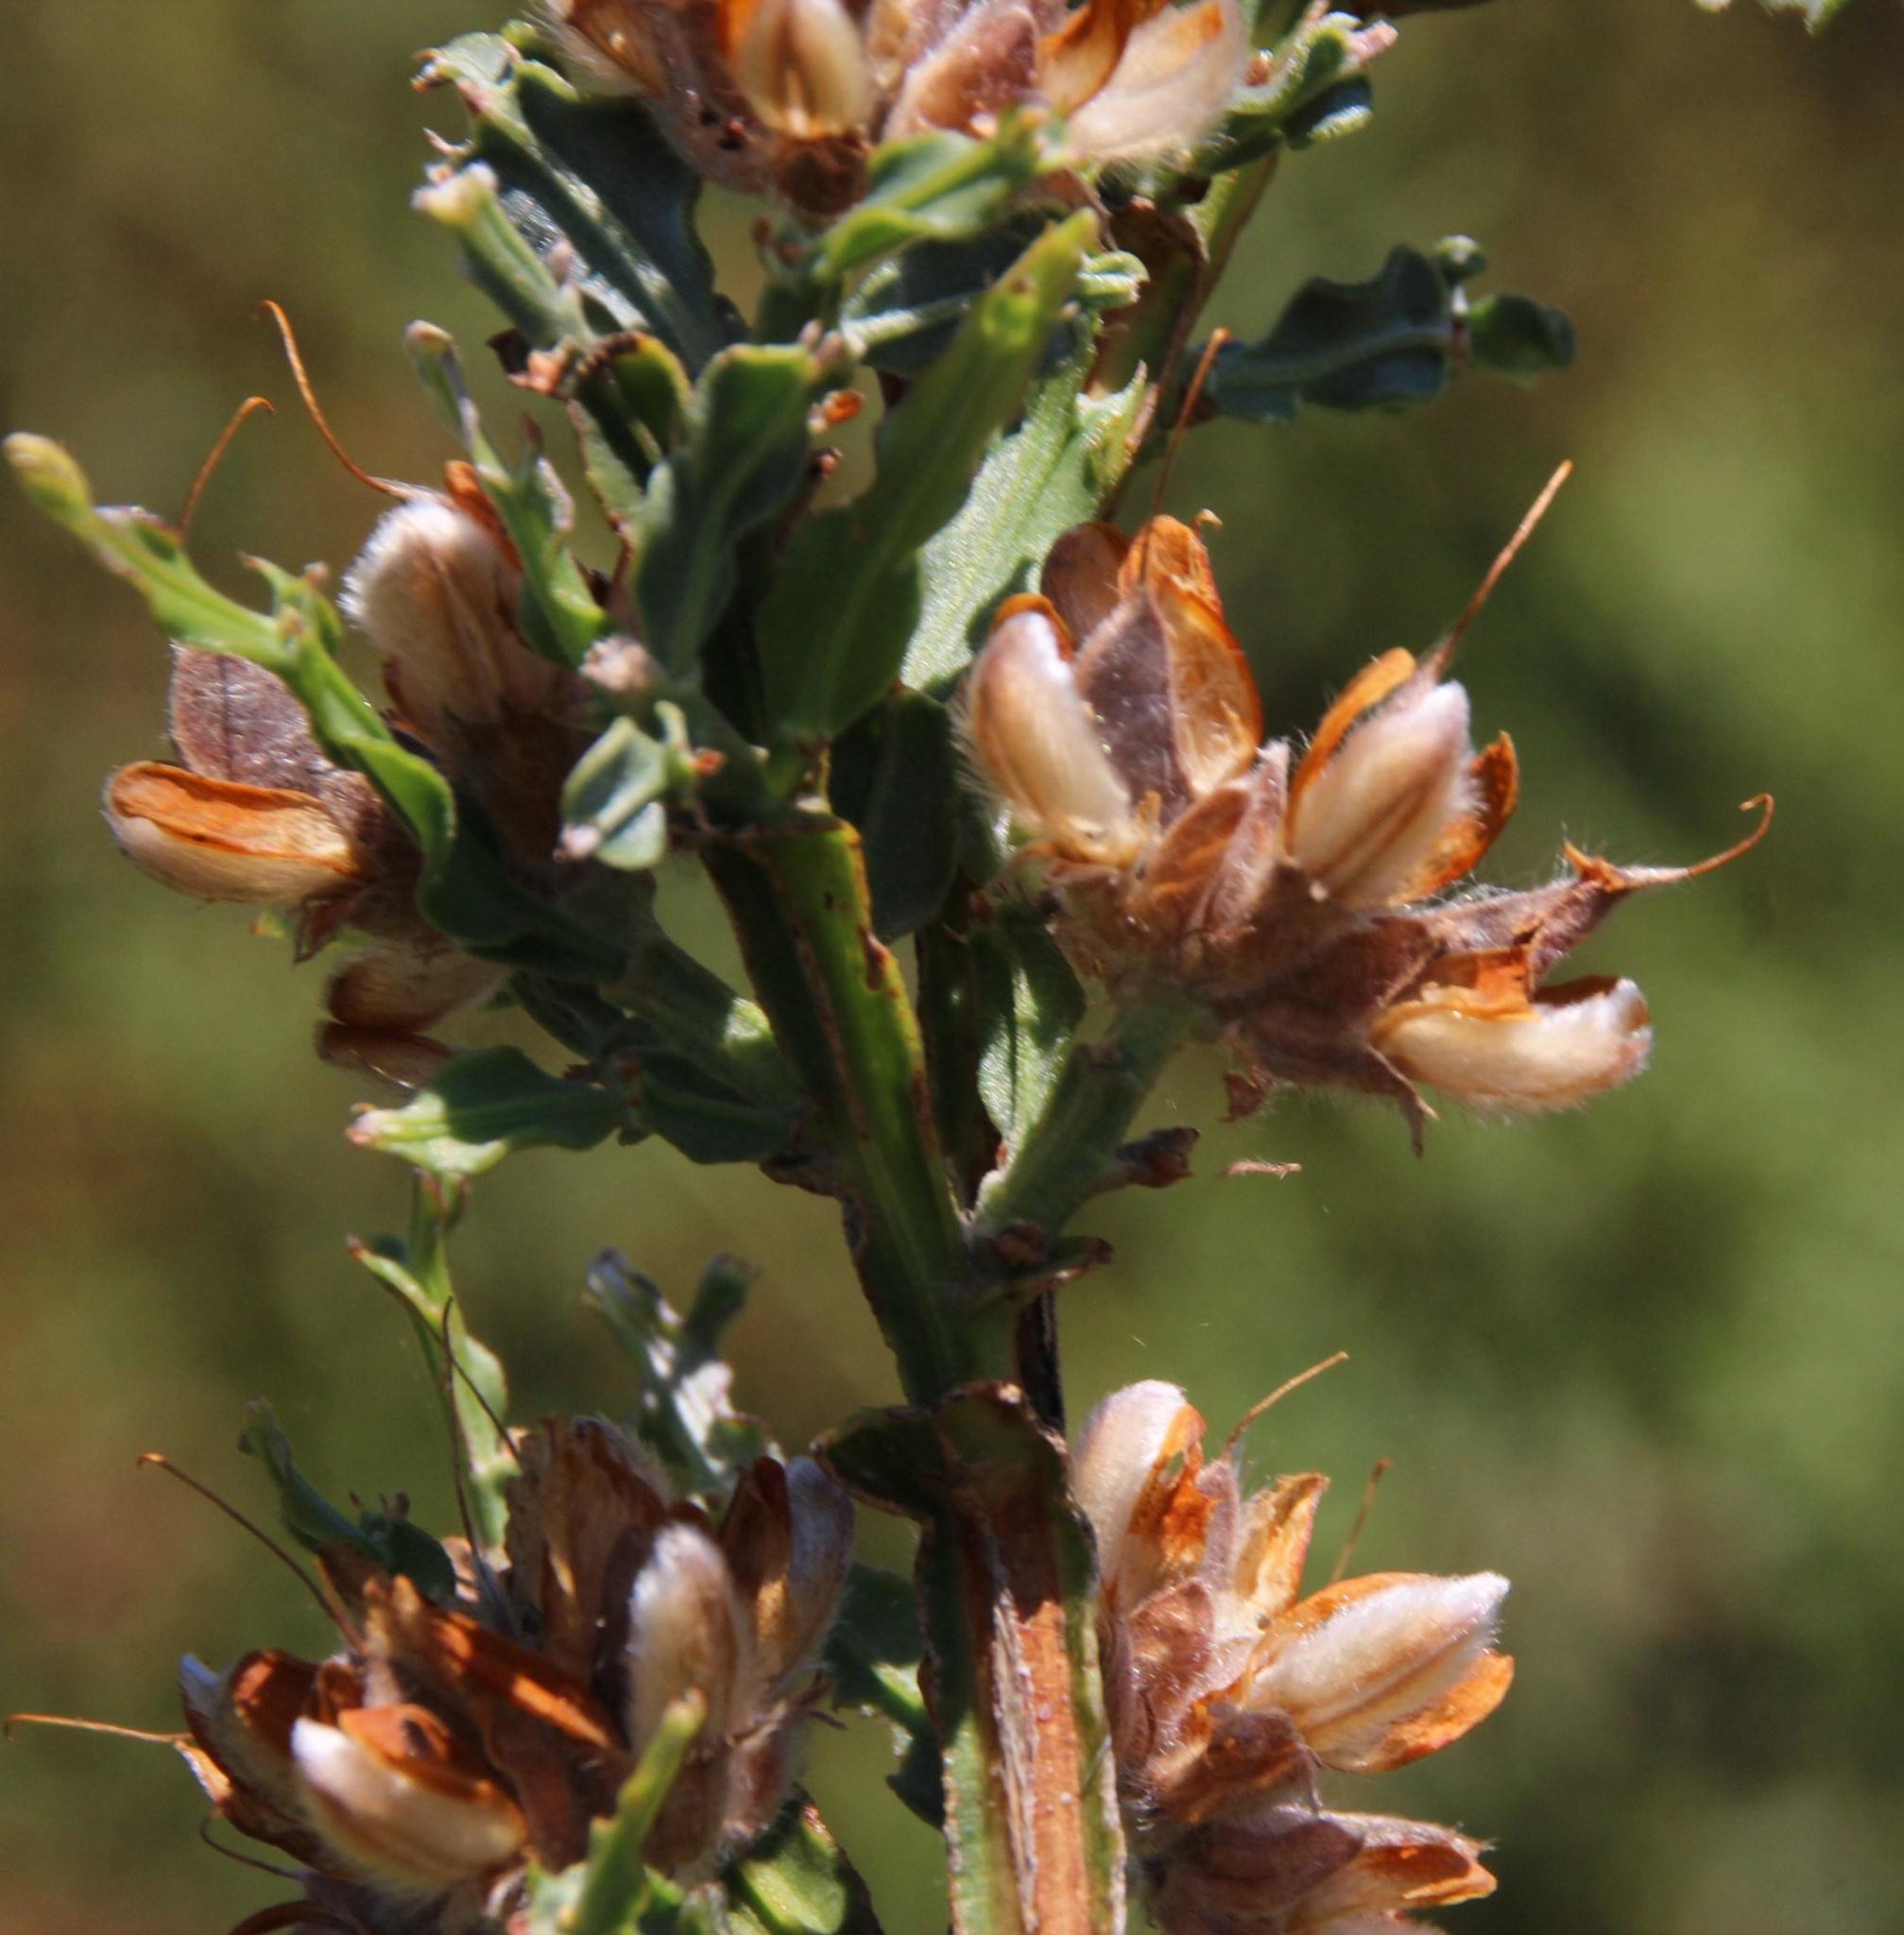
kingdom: Plantae
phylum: Tracheophyta
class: Magnoliopsida
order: Fabales
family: Fabaceae
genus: Genista
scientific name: Genista tridentata
